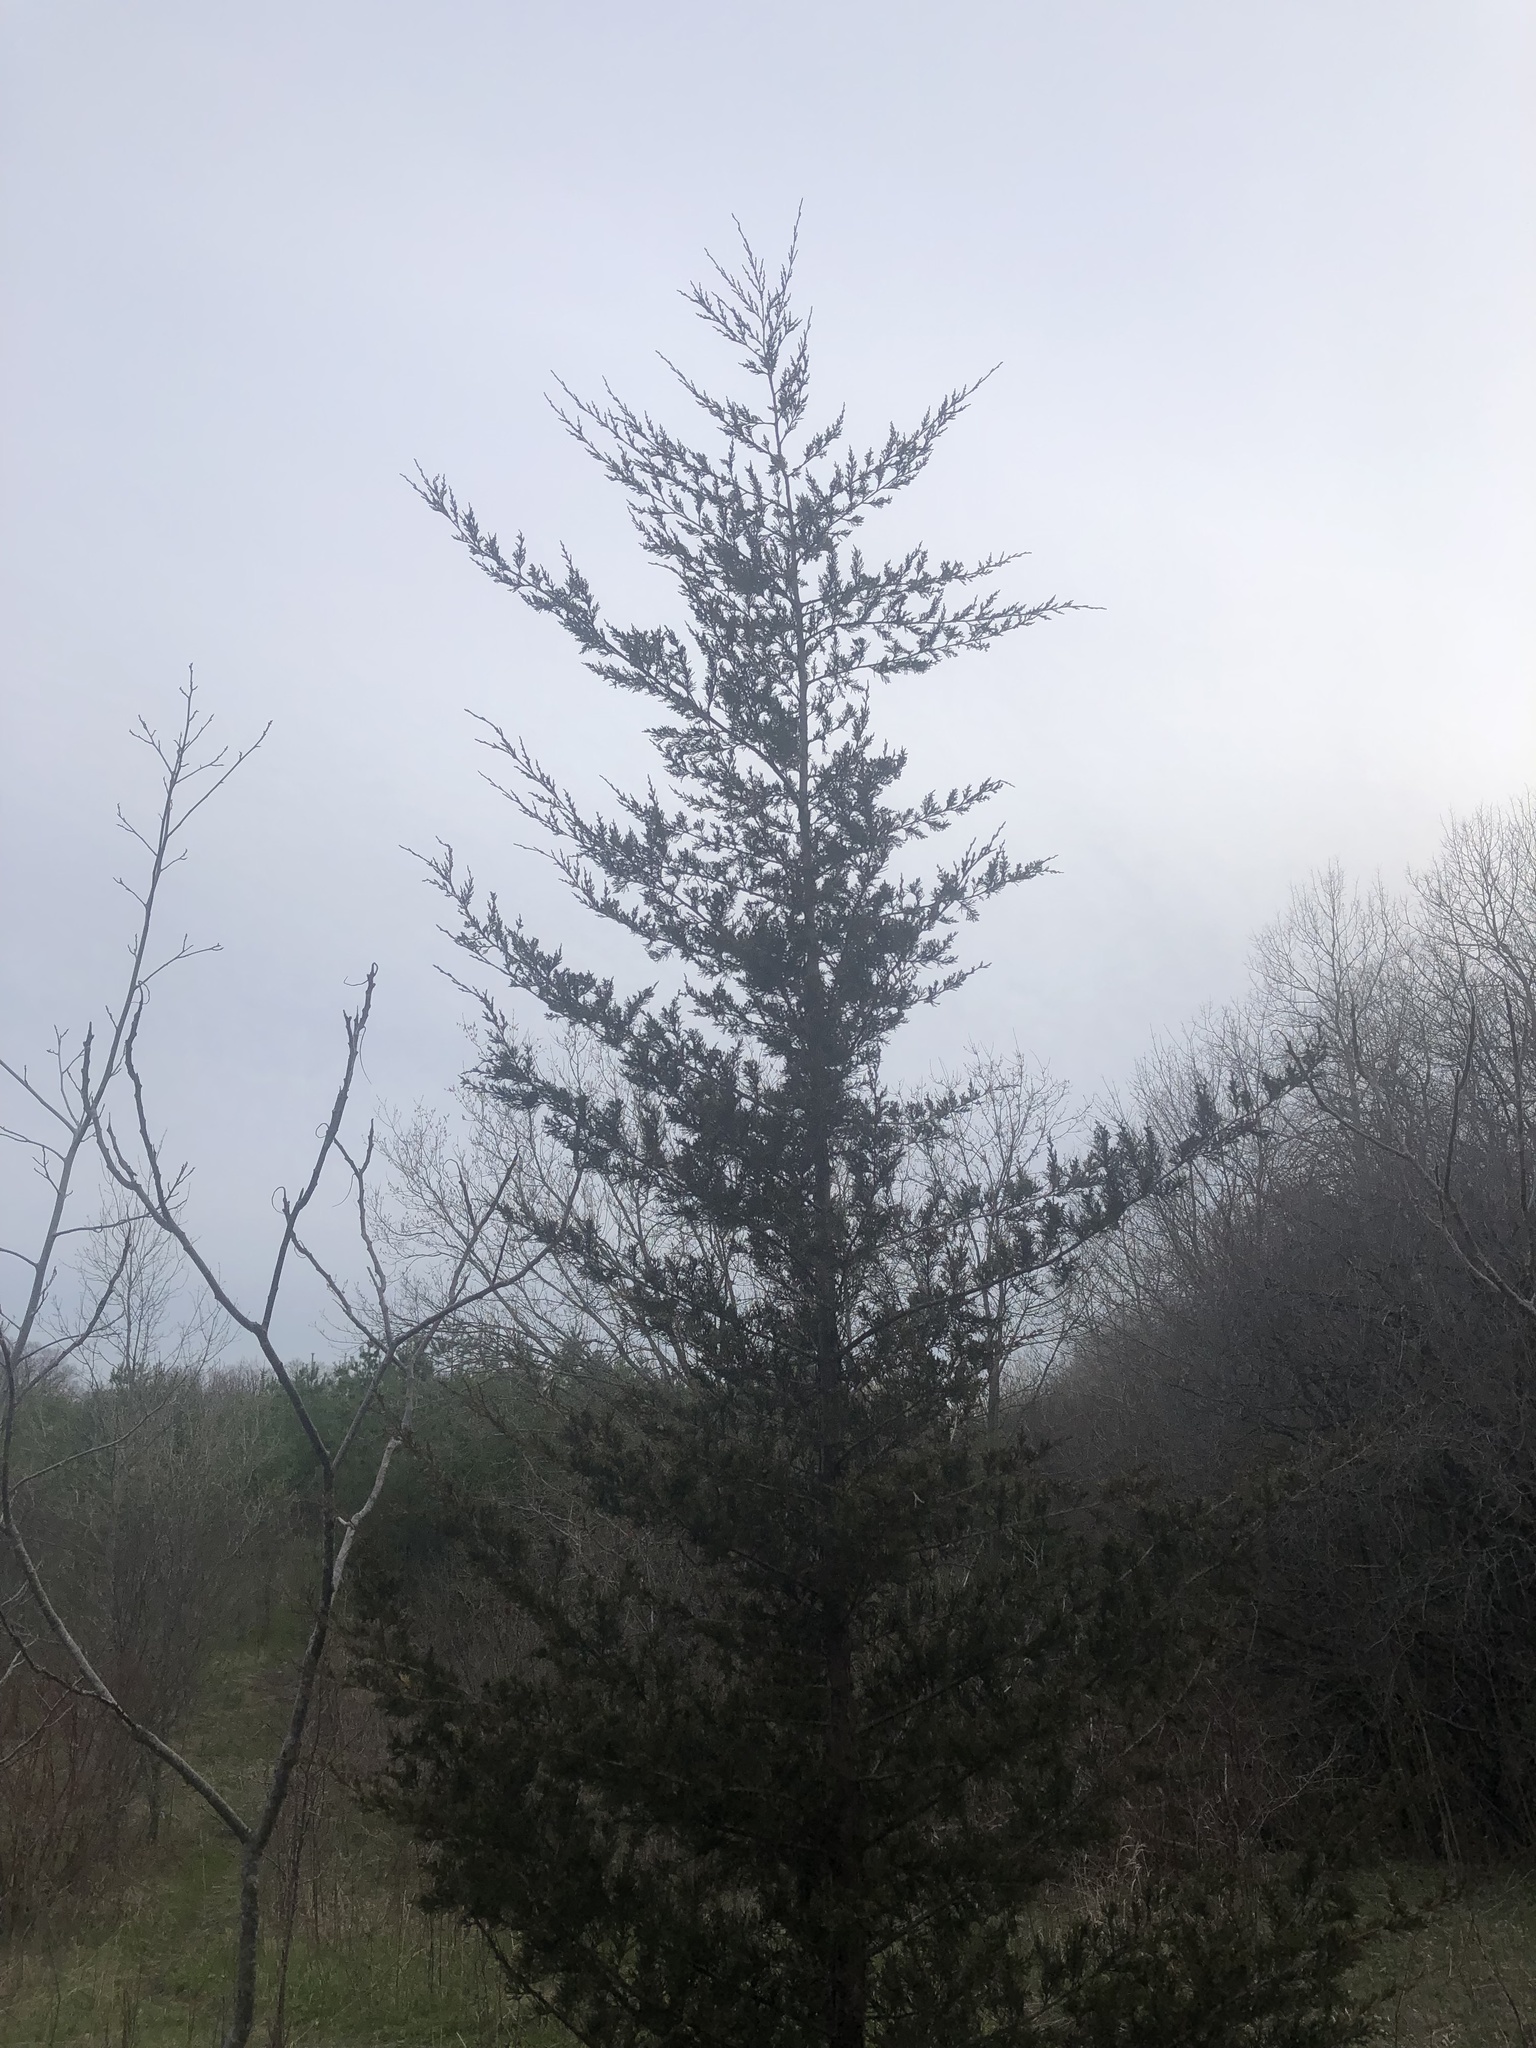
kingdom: Plantae
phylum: Tracheophyta
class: Pinopsida
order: Pinales
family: Cupressaceae
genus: Juniperus
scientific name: Juniperus virginiana
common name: Red juniper
